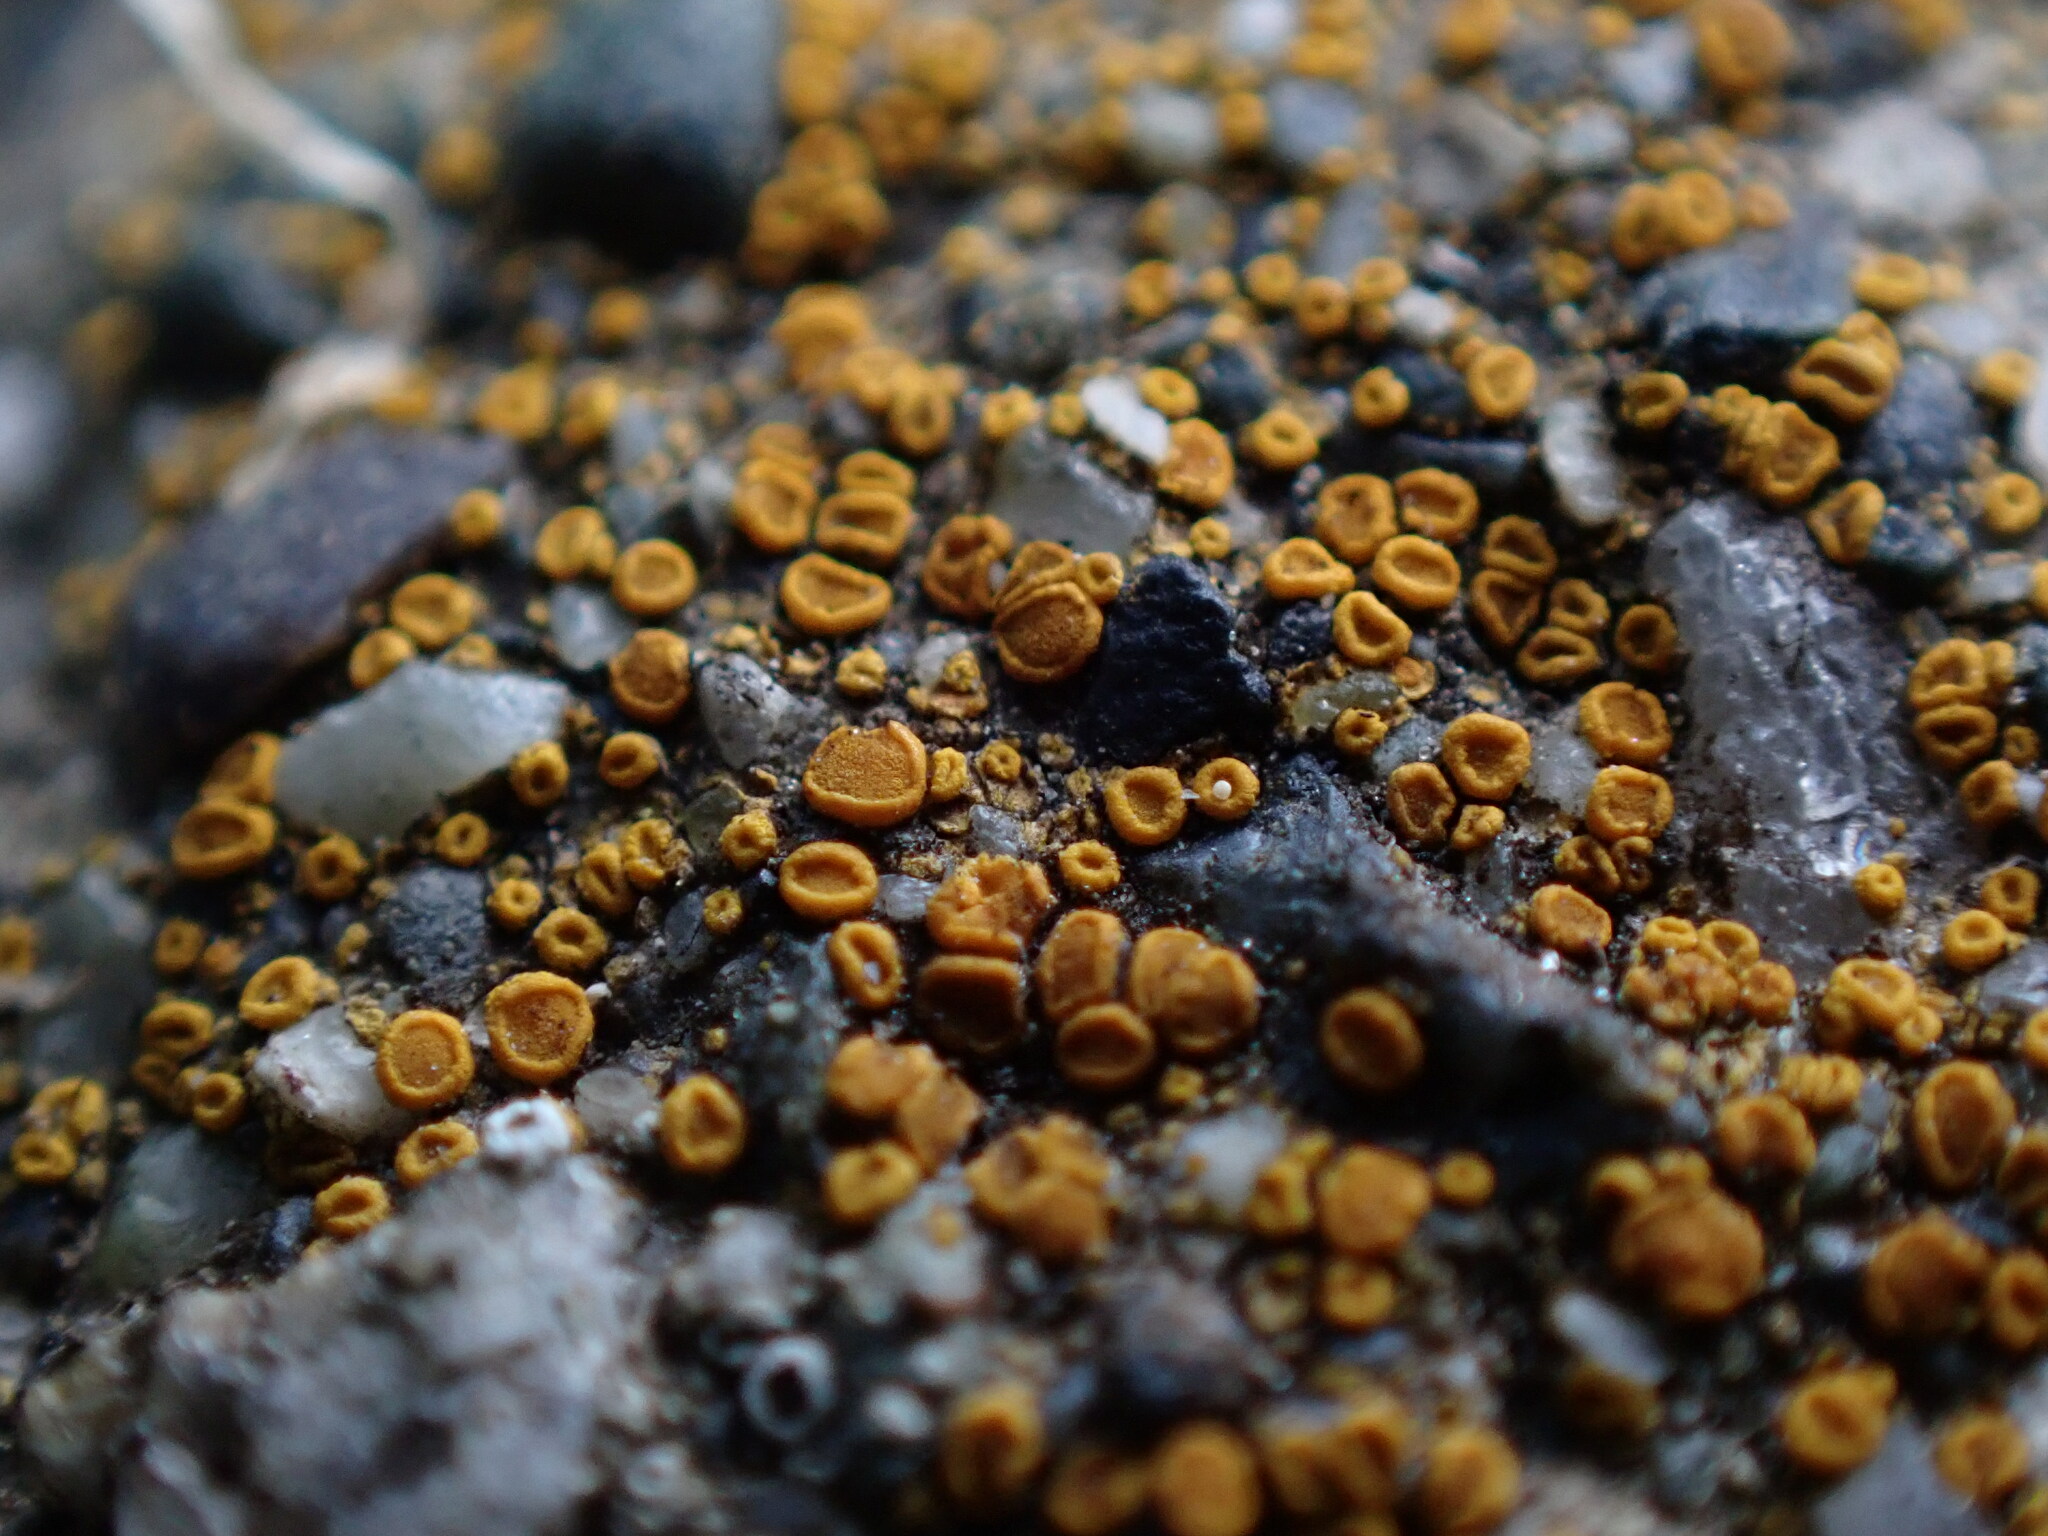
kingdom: Fungi
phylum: Ascomycota
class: Lecanoromycetes
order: Teloschistales
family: Teloschistaceae
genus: Tomnashia
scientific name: Tomnashia luteominia
